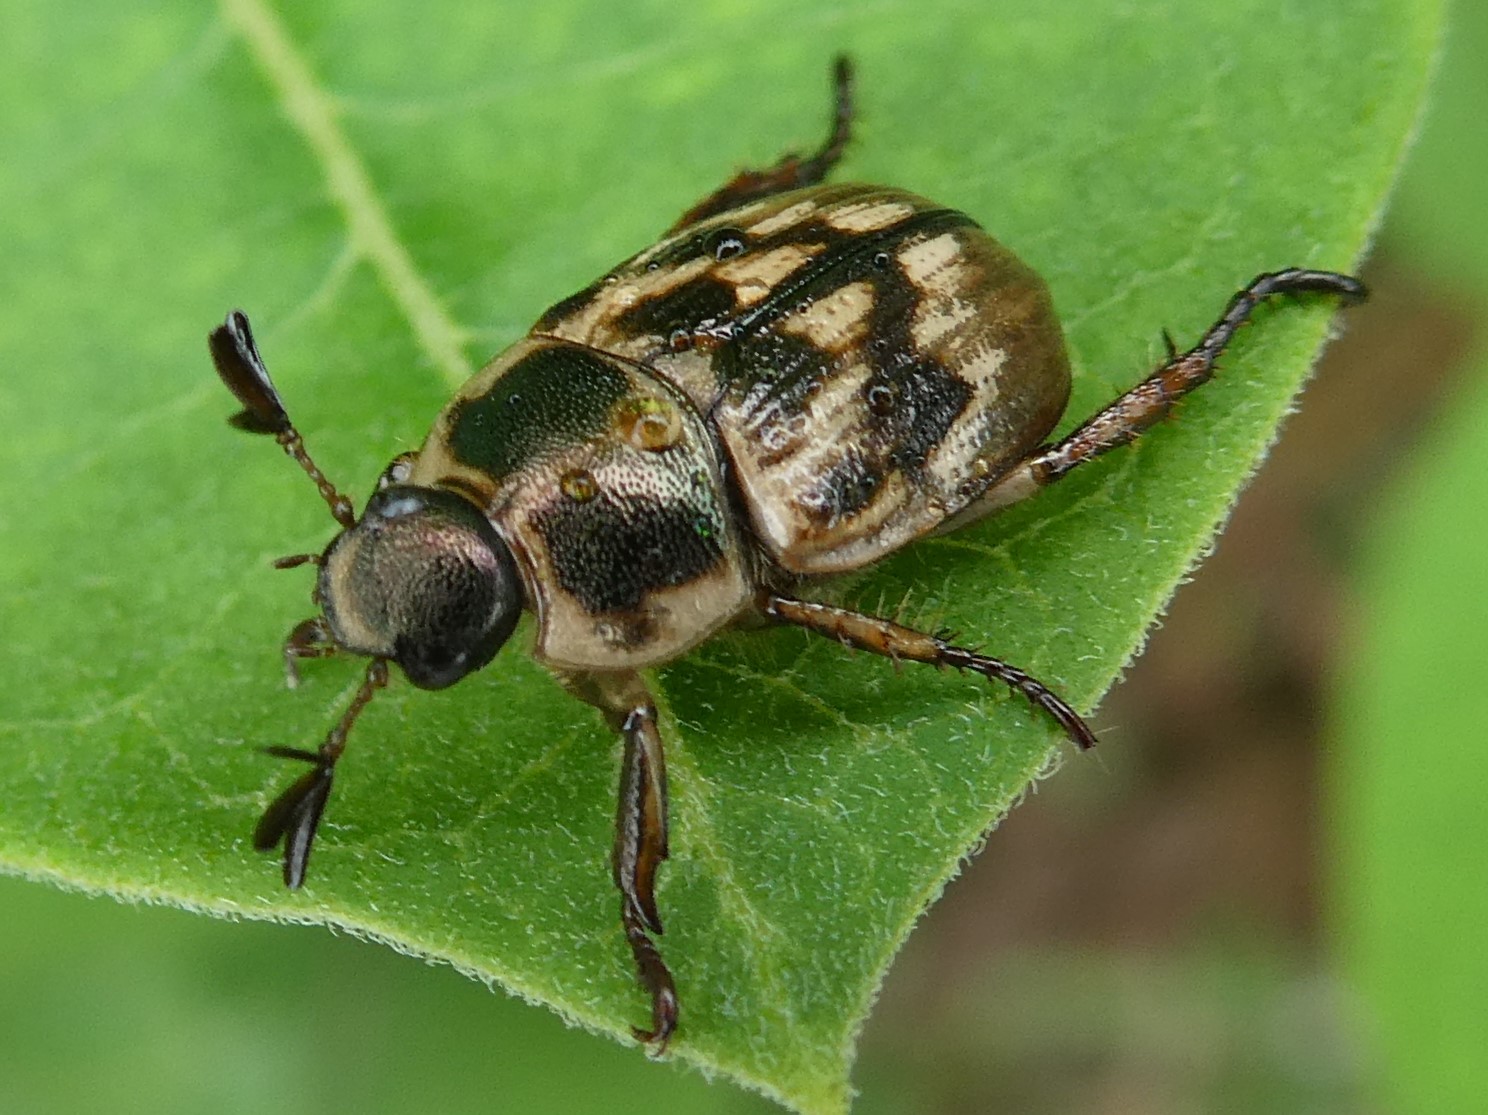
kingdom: Animalia
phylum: Arthropoda
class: Insecta
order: Coleoptera
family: Scarabaeidae
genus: Exomala
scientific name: Exomala orientalis
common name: Oriental beetle
